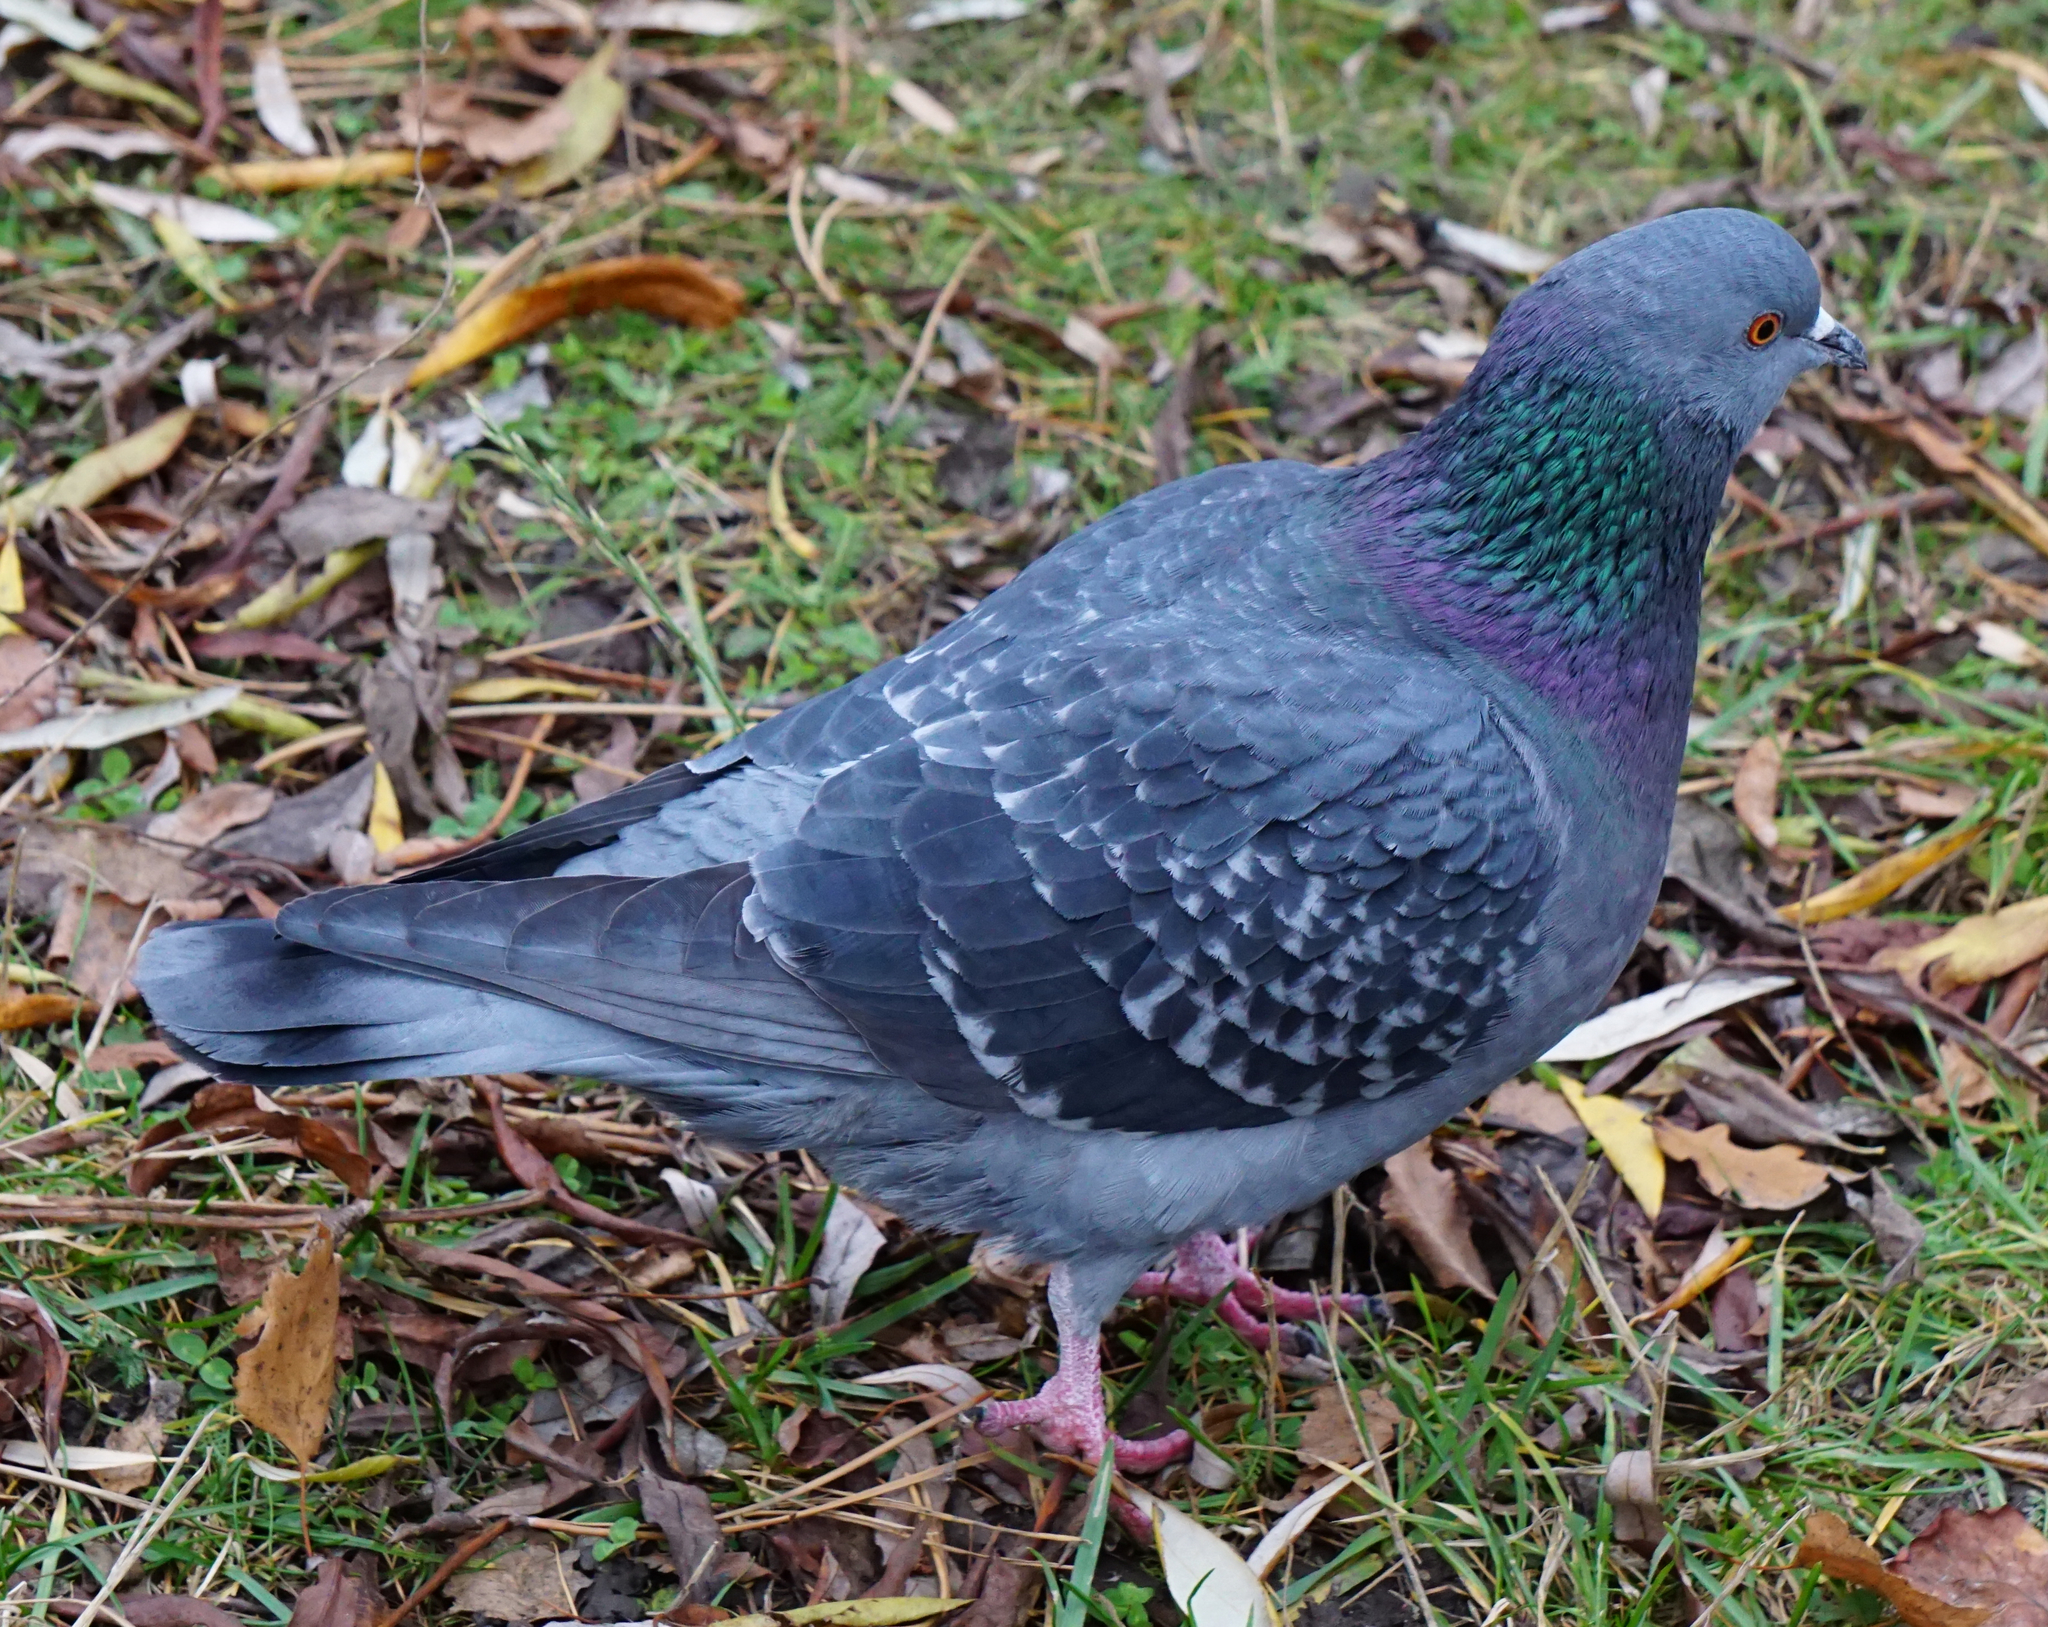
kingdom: Animalia
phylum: Chordata
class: Aves
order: Columbiformes
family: Columbidae
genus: Columba
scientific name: Columba livia
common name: Rock pigeon
